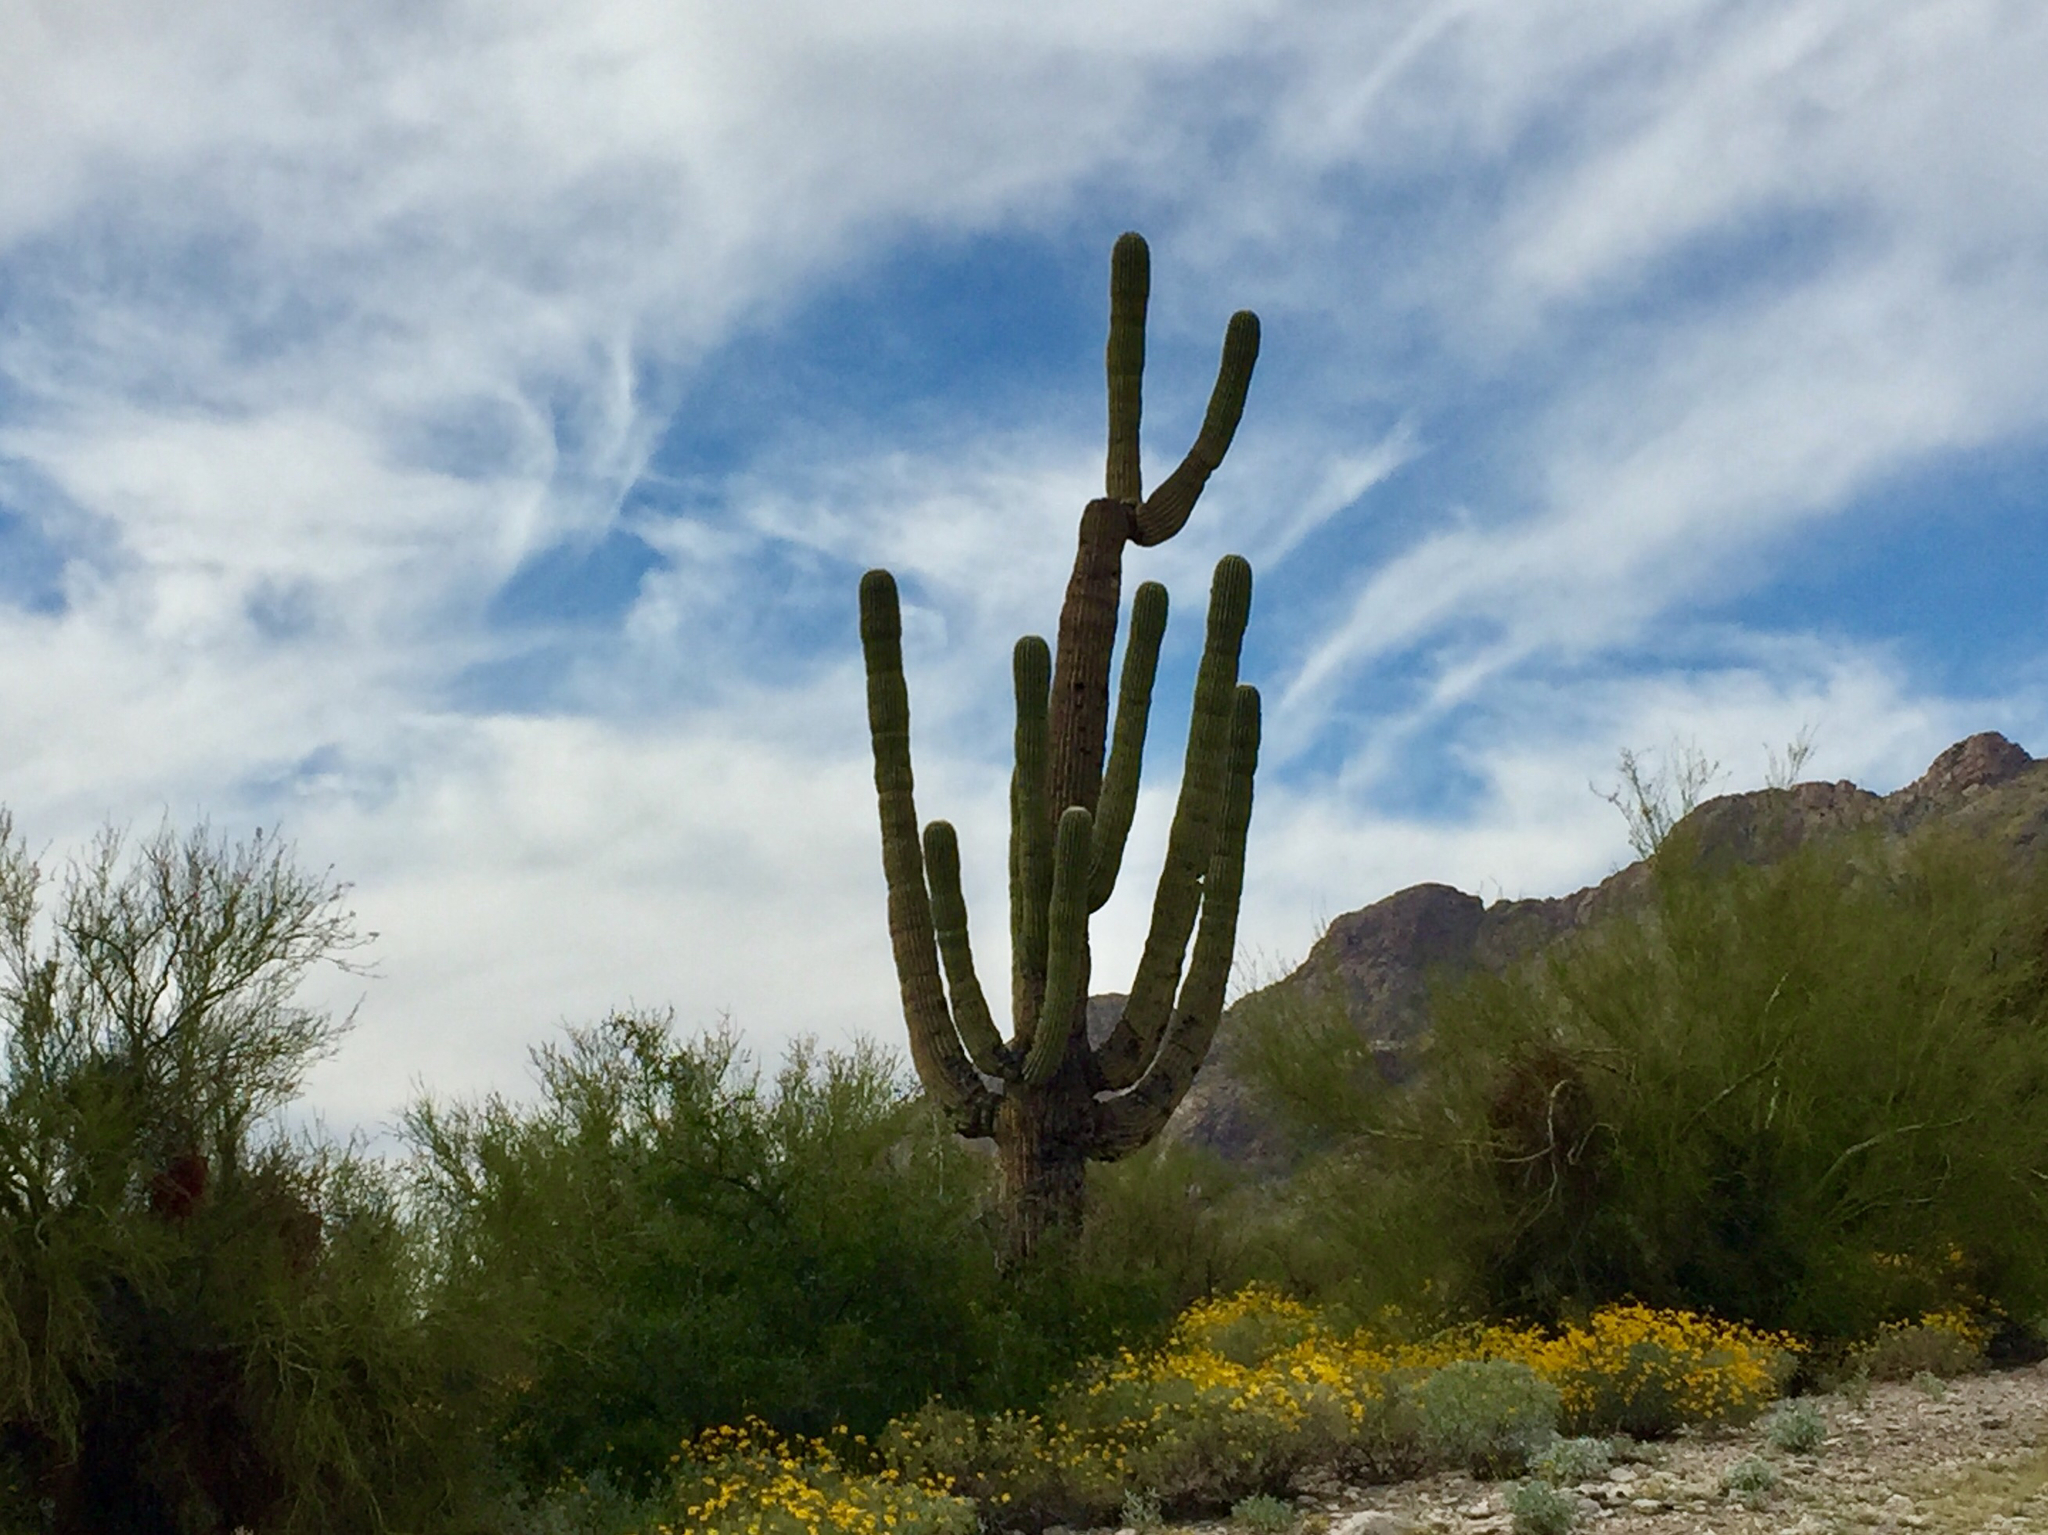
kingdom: Plantae
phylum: Tracheophyta
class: Magnoliopsida
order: Caryophyllales
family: Cactaceae
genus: Carnegiea
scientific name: Carnegiea gigantea
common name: Saguaro
